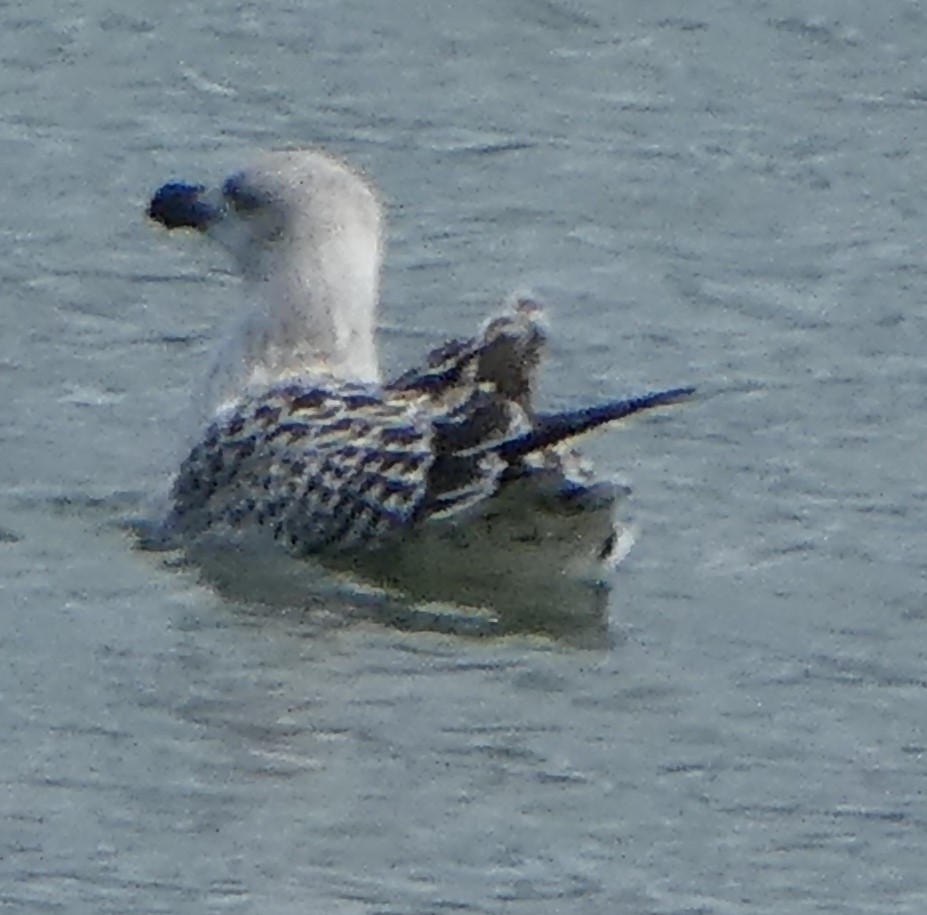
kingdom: Animalia
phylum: Chordata
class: Aves
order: Charadriiformes
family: Laridae
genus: Larus
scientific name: Larus marinus
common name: Great black-backed gull
